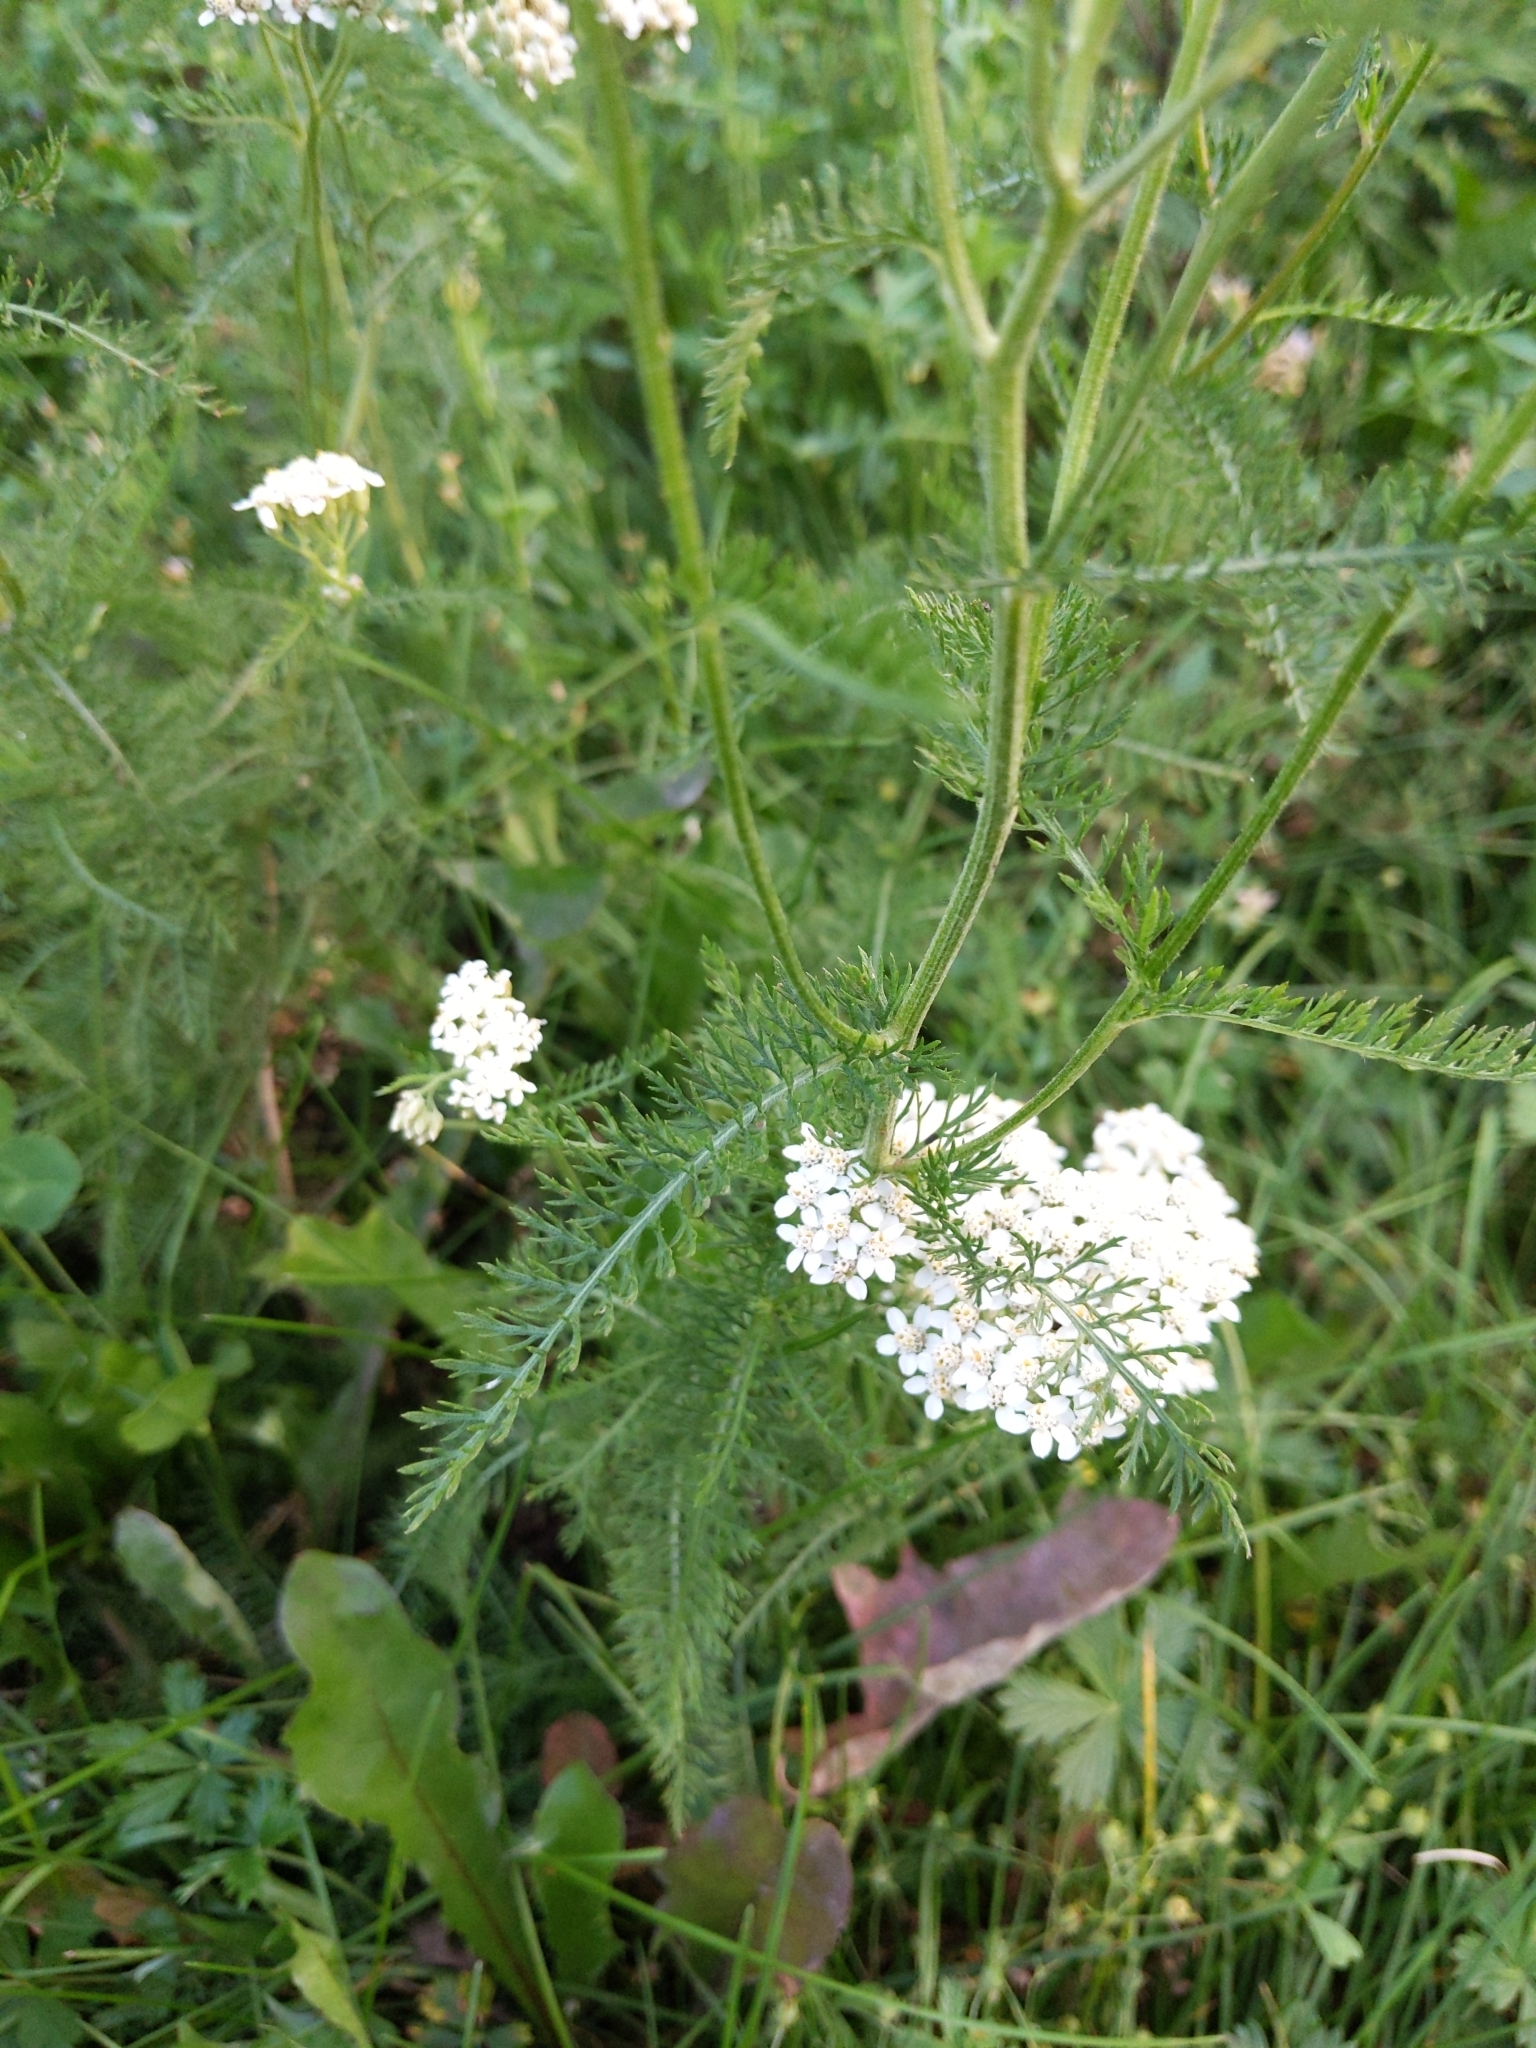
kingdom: Plantae
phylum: Tracheophyta
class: Magnoliopsida
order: Asterales
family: Asteraceae
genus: Achillea
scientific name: Achillea millefolium
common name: Yarrow
